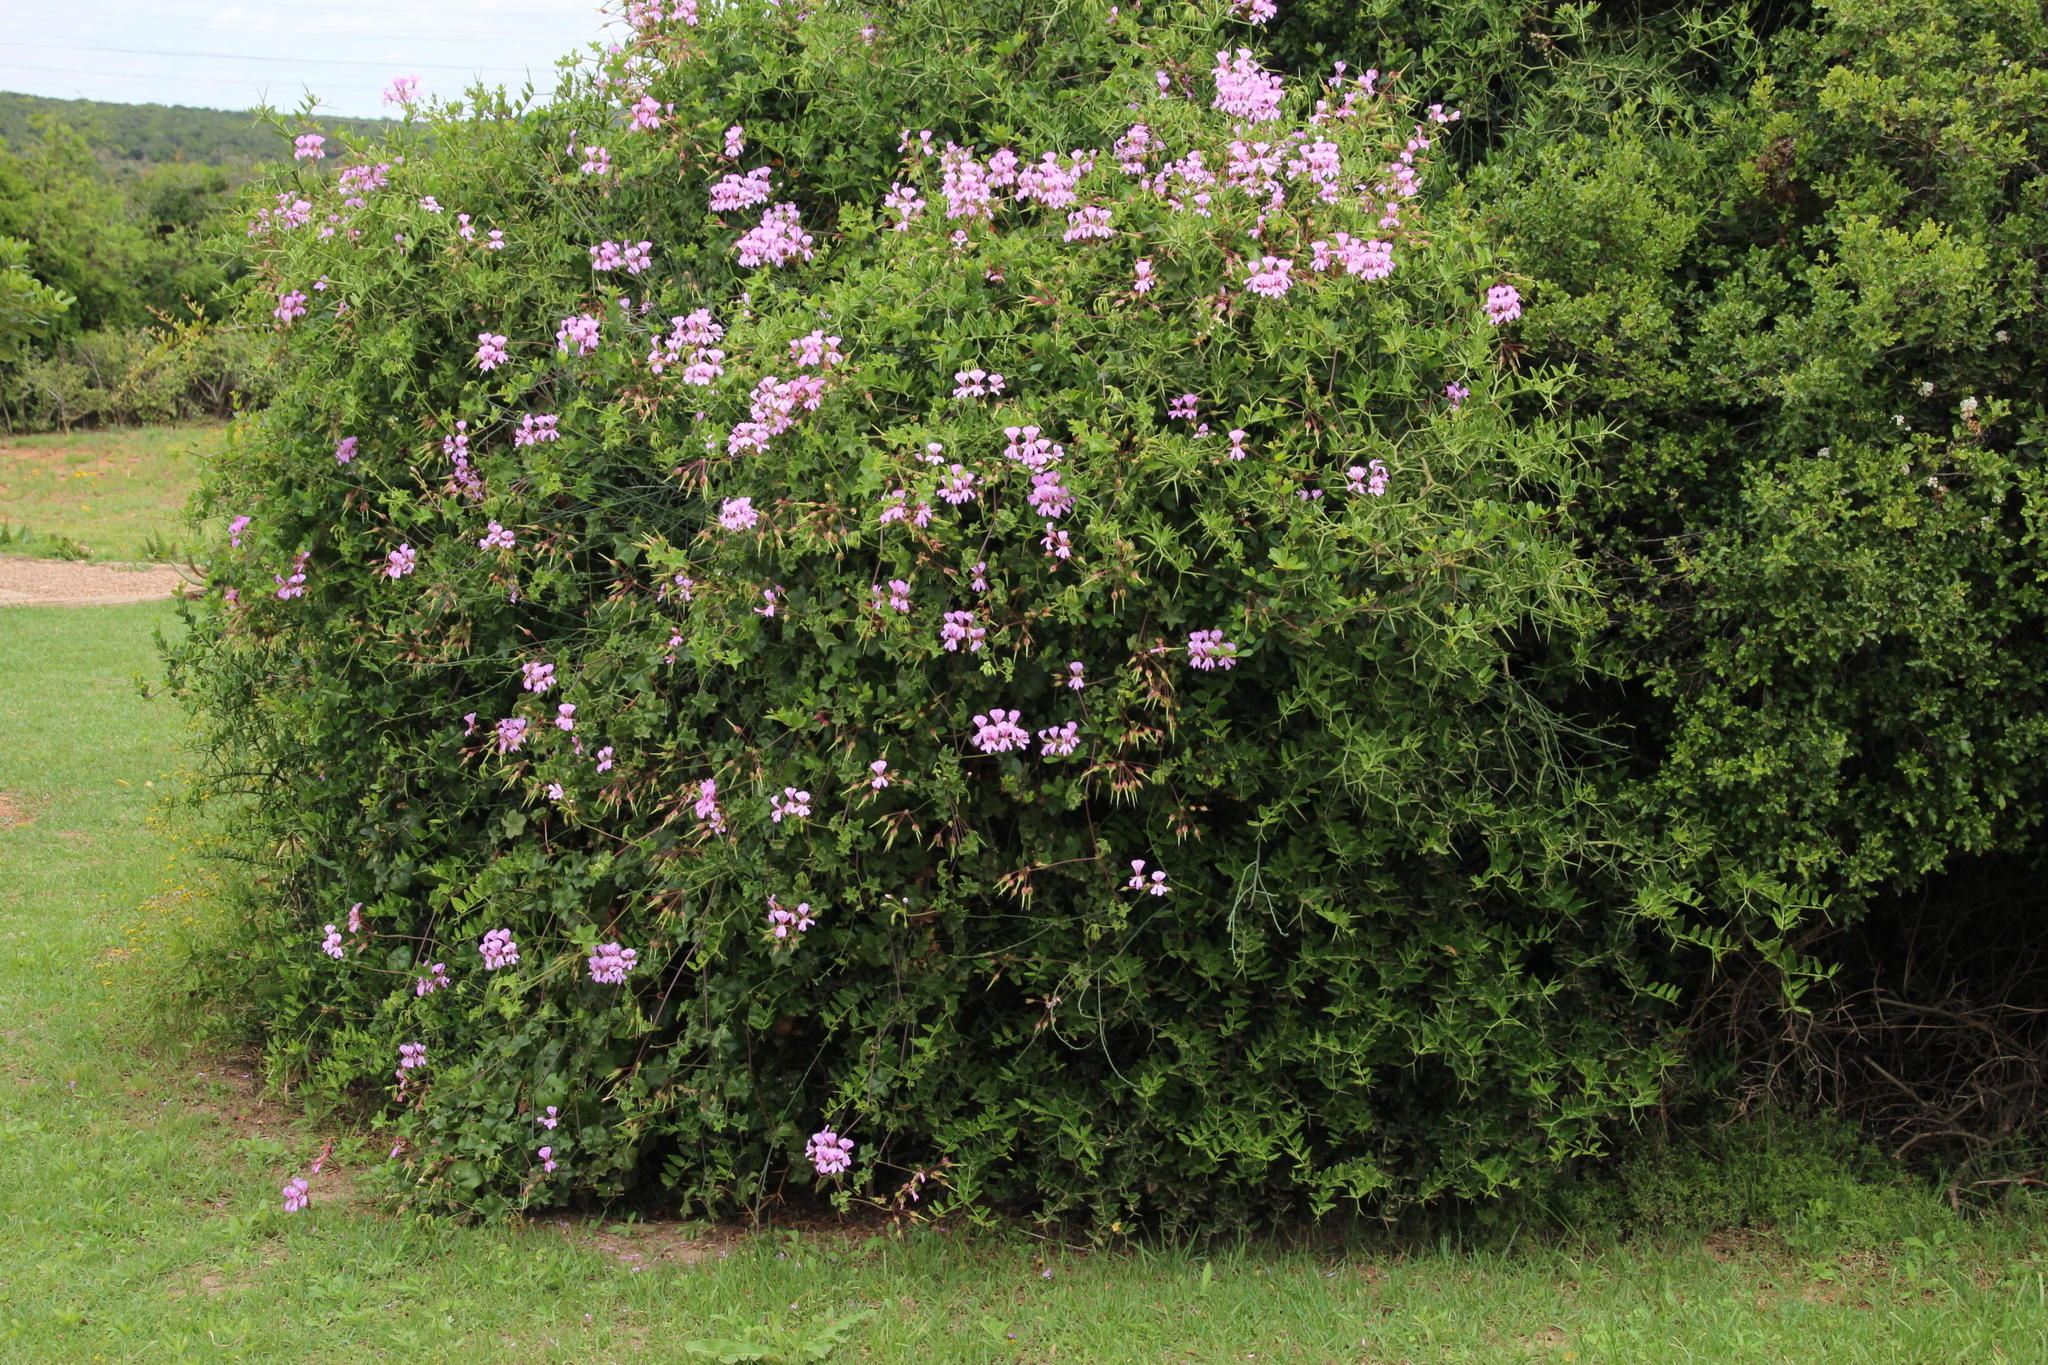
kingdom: Plantae
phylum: Tracheophyta
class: Magnoliopsida
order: Geraniales
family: Geraniaceae
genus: Pelargonium
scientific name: Pelargonium peltatum
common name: Ivyleaf geranium
